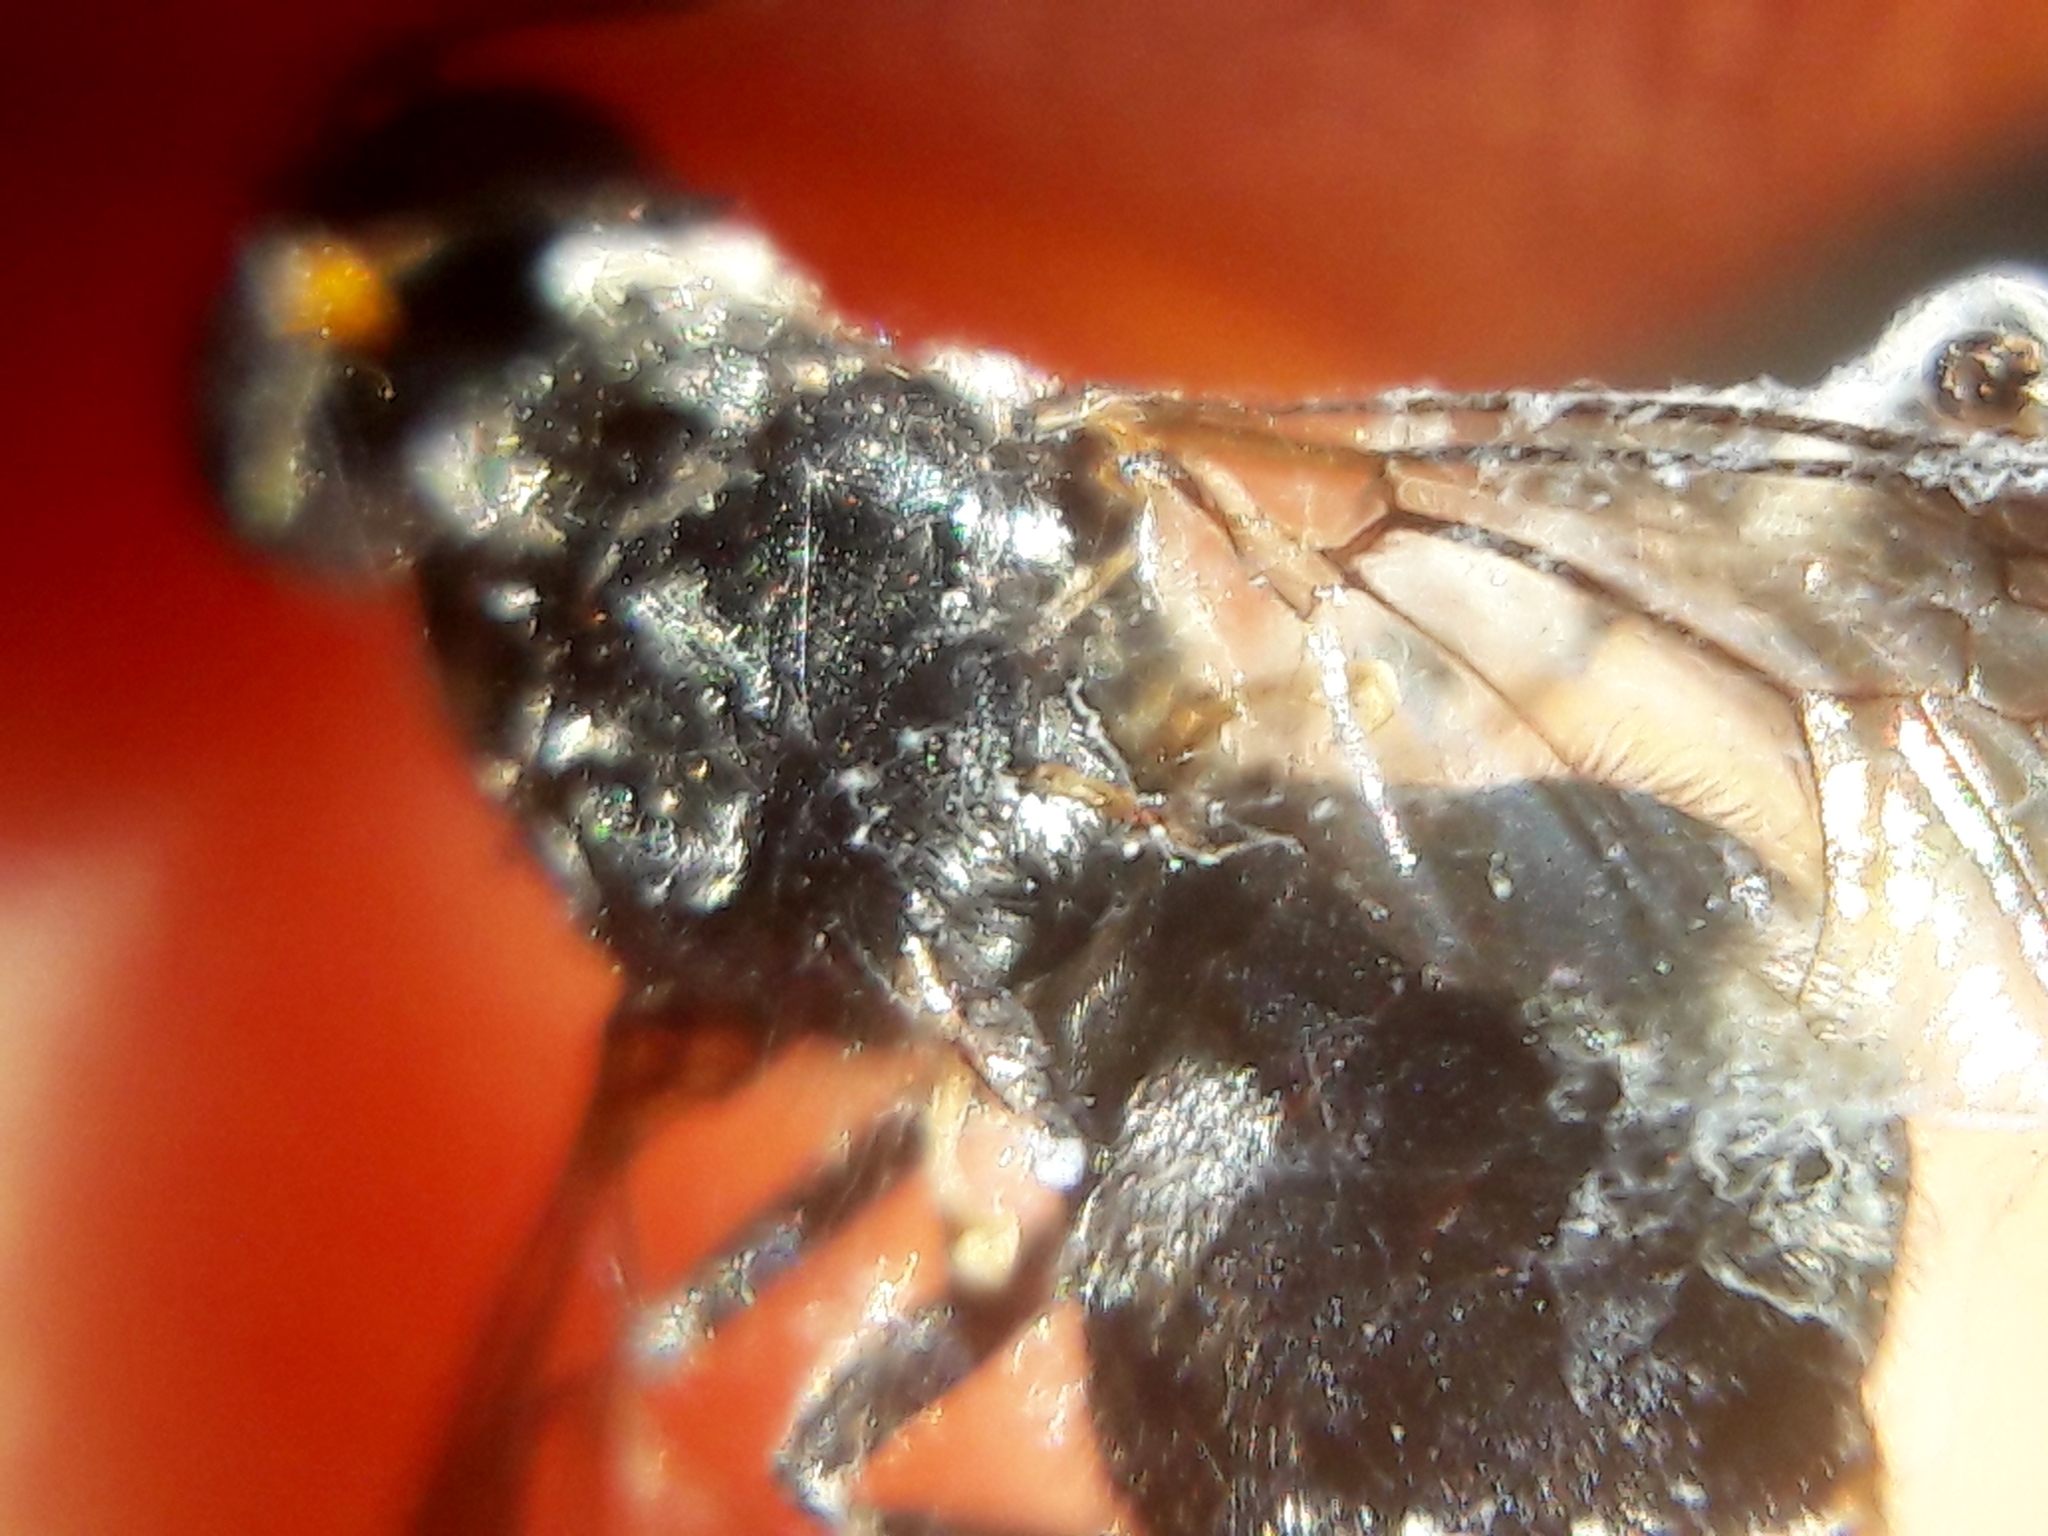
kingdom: Animalia
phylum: Arthropoda
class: Insecta
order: Diptera
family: Stratiomyidae
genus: Cyphomyia
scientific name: Cyphomyia wiedemanni
